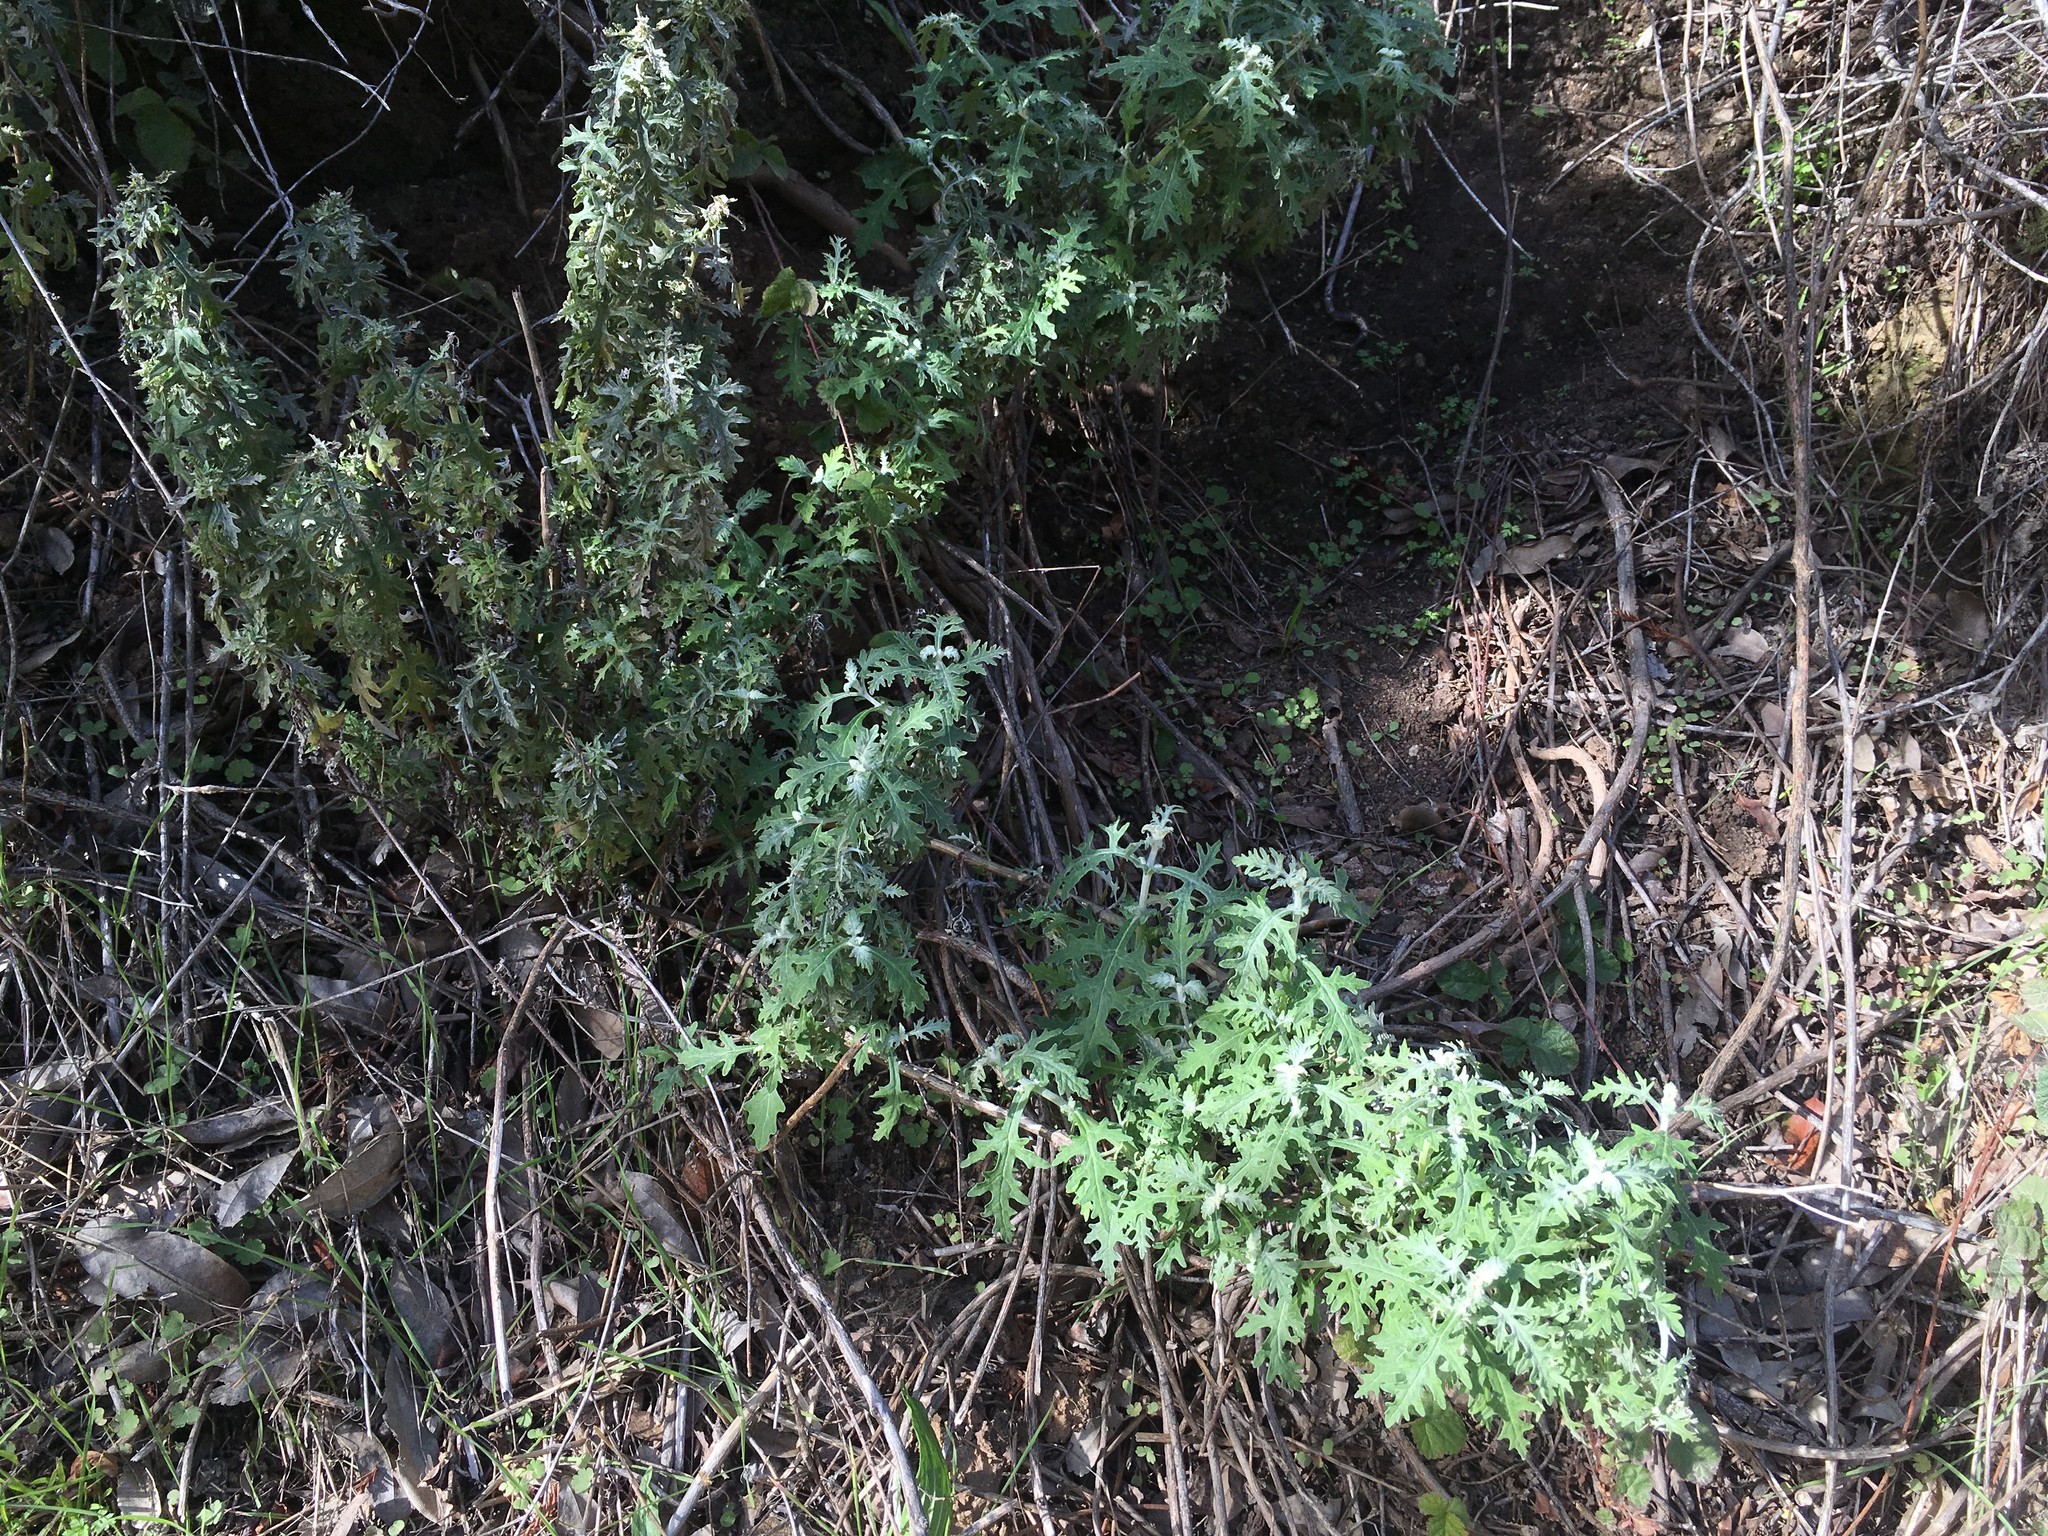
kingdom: Plantae
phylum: Tracheophyta
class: Magnoliopsida
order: Asterales
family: Asteraceae
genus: Eriophyllum
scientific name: Eriophyllum staechadifolium
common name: Lizardtail
